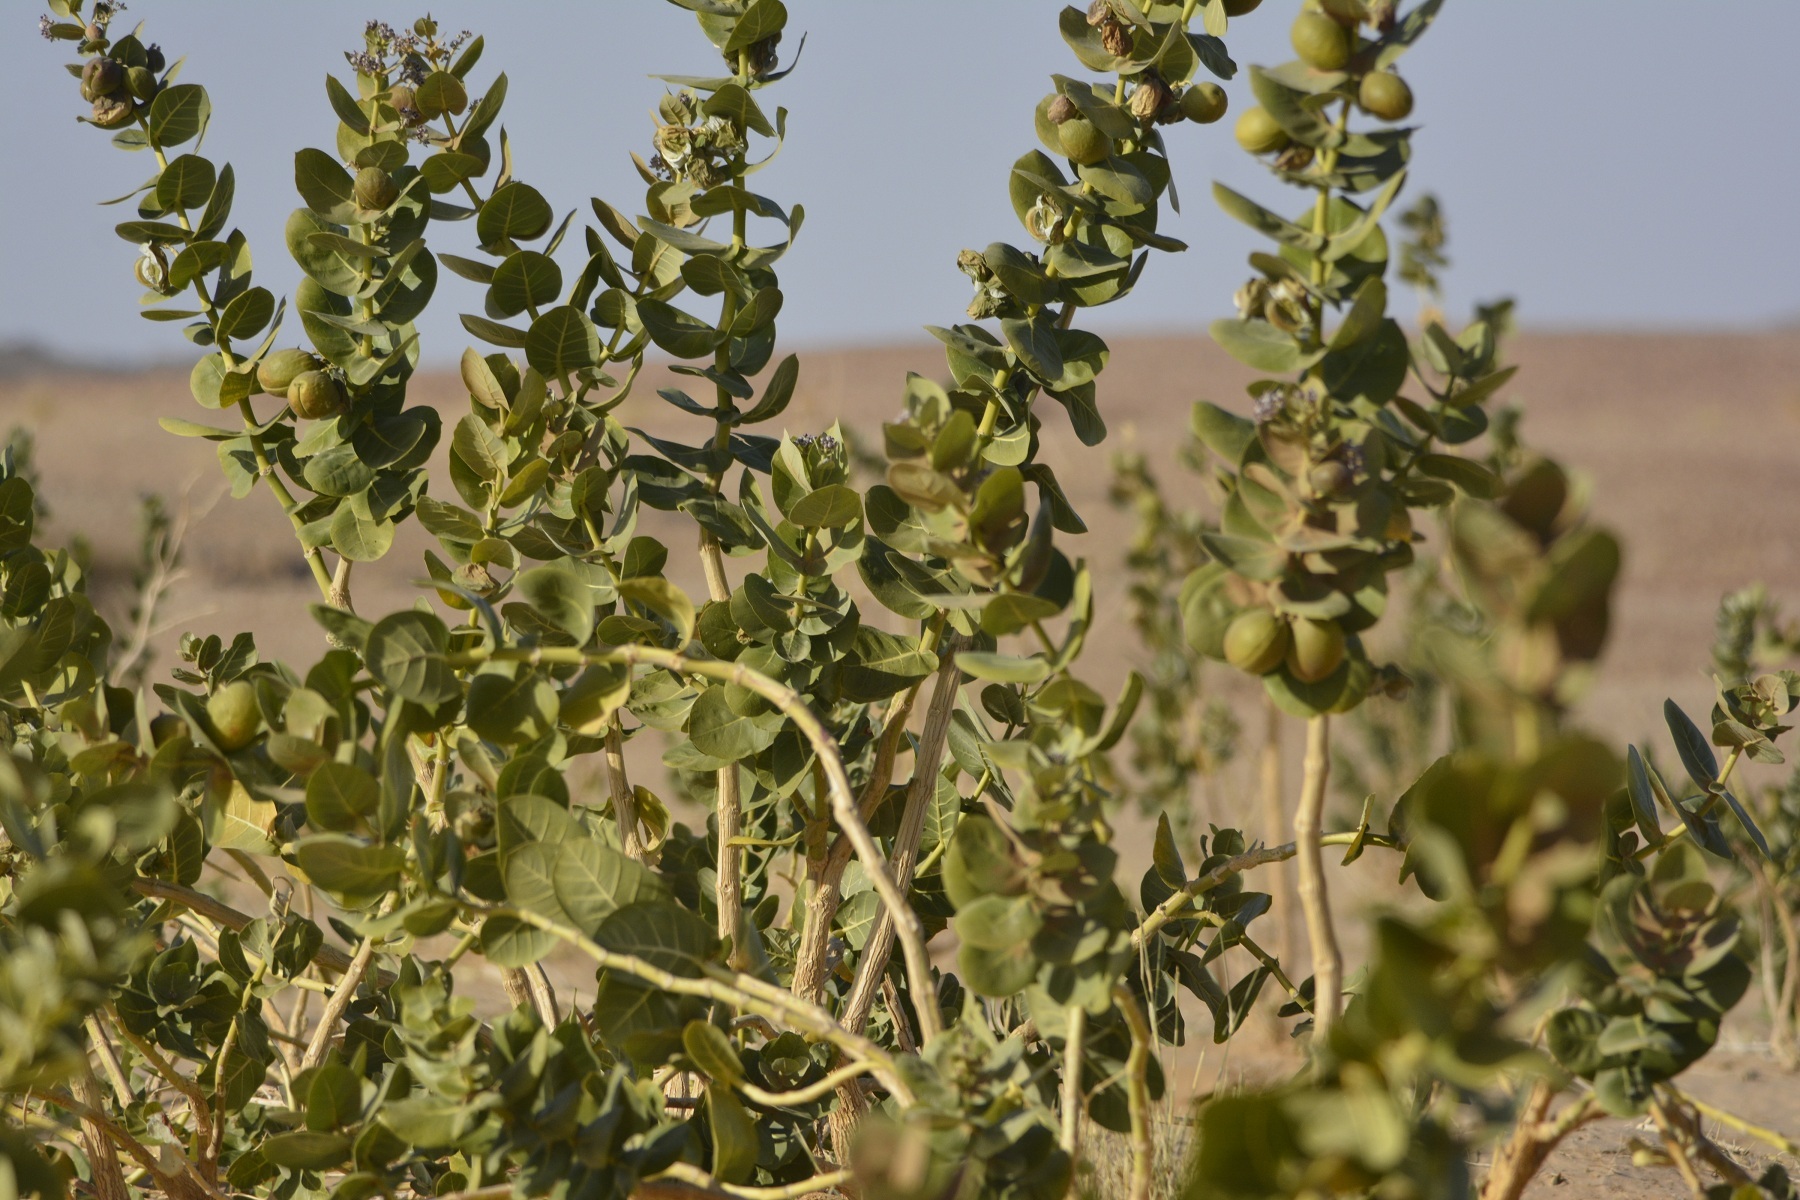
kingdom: Plantae
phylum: Tracheophyta
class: Magnoliopsida
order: Gentianales
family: Apocynaceae
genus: Calotropis
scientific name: Calotropis procera
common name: Roostertree
